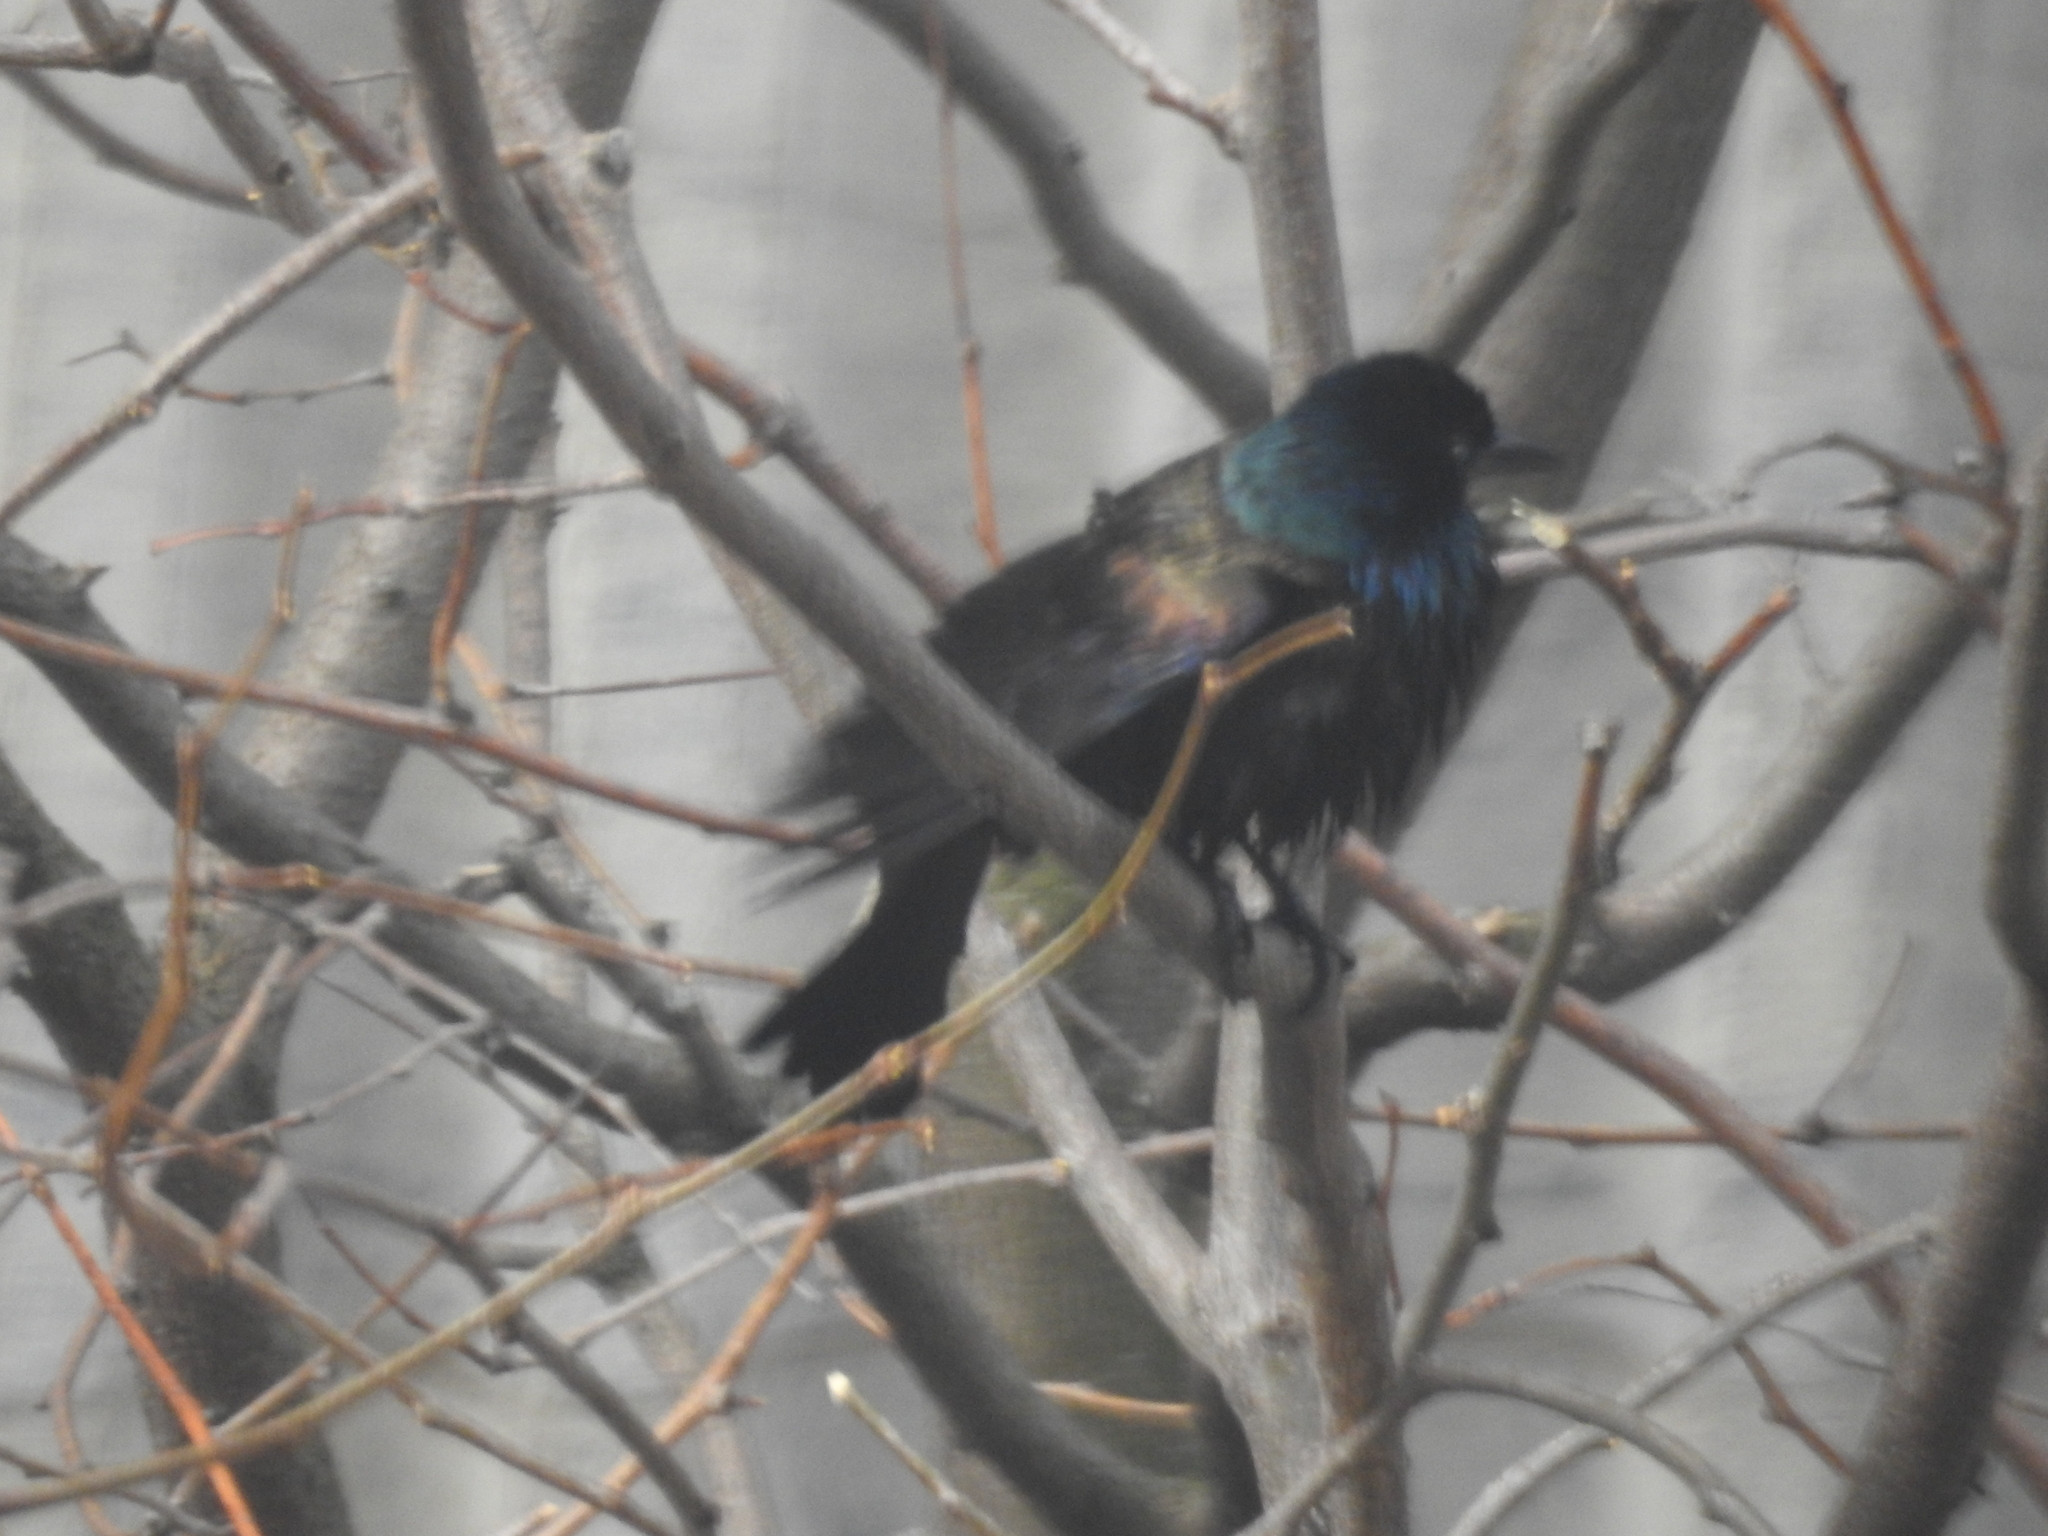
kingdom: Animalia
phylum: Chordata
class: Aves
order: Passeriformes
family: Icteridae
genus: Quiscalus
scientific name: Quiscalus quiscula
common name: Common grackle
